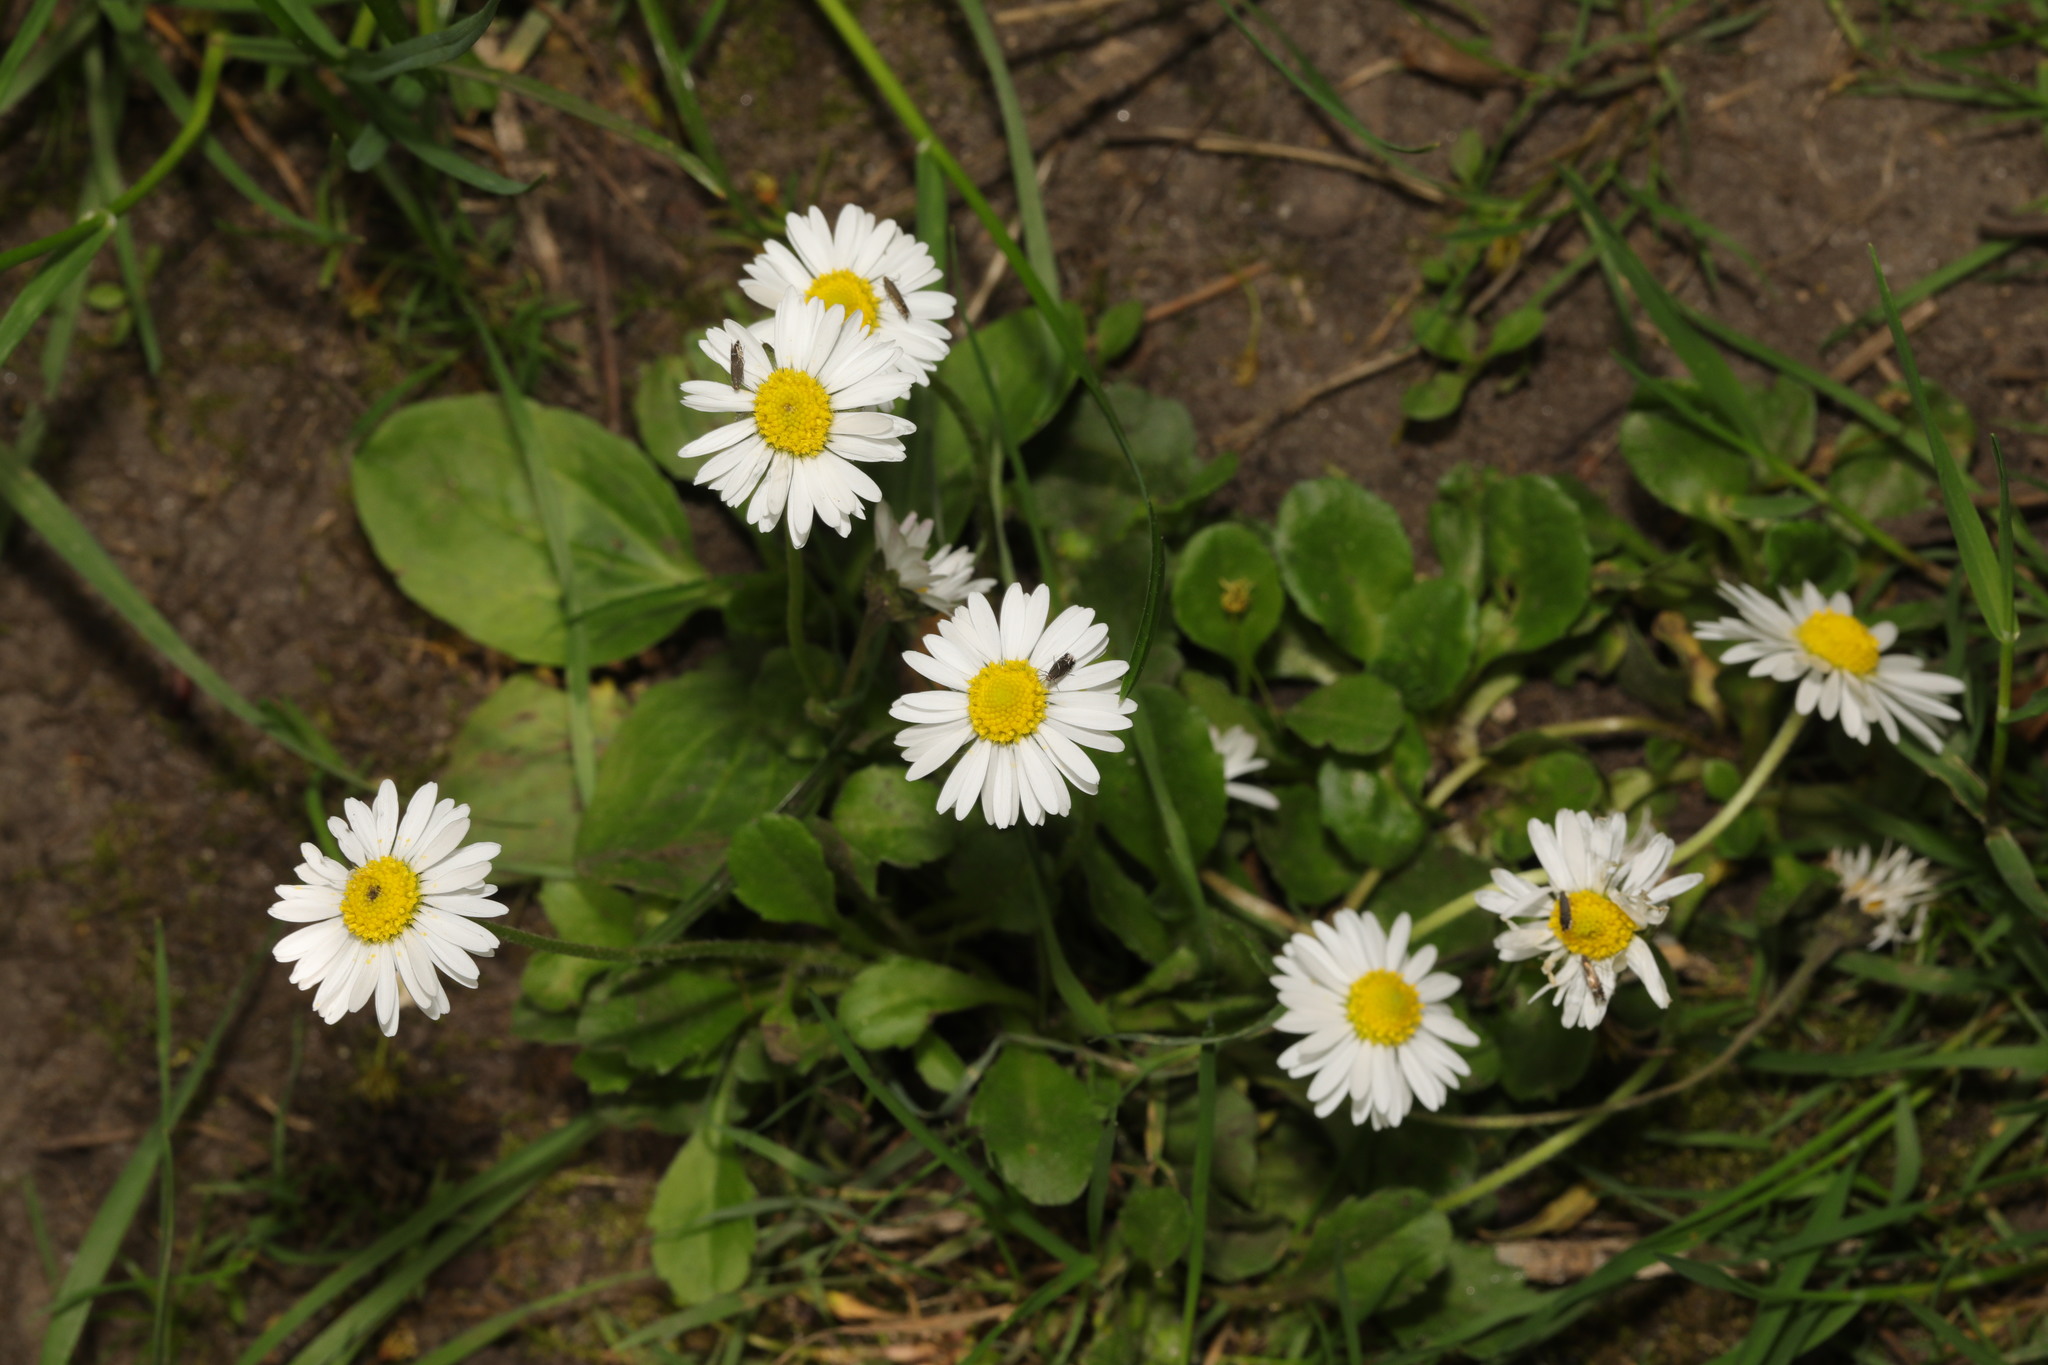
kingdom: Plantae
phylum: Tracheophyta
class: Magnoliopsida
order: Asterales
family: Asteraceae
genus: Bellis
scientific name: Bellis perennis
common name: Lawndaisy
